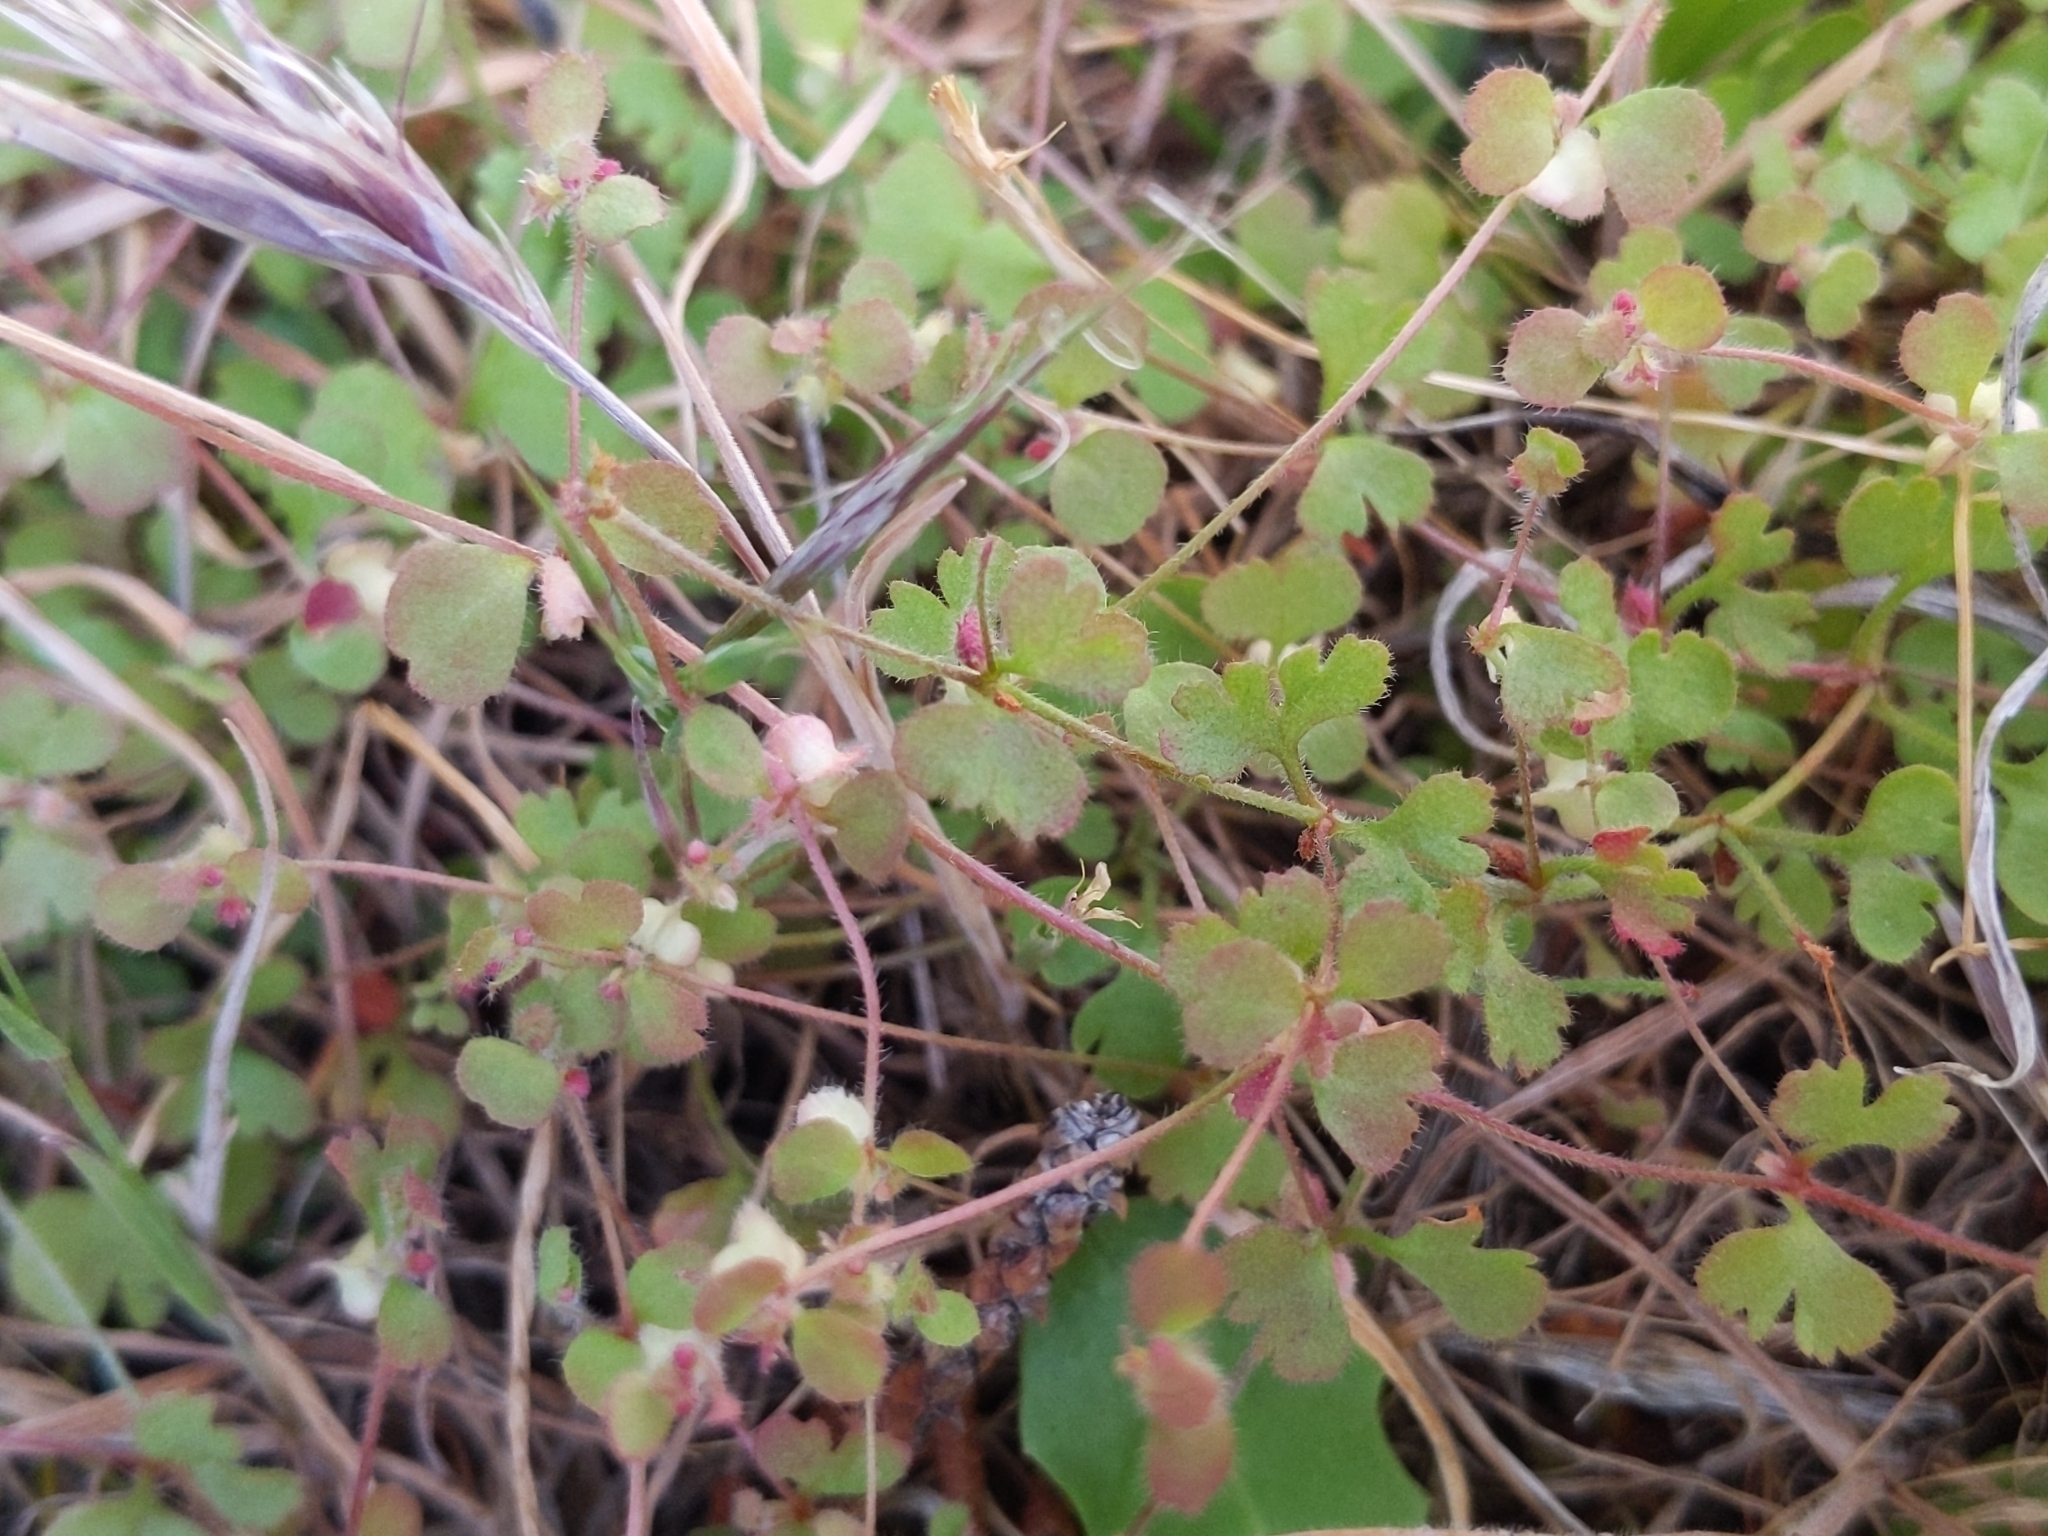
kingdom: Plantae
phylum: Tracheophyta
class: Magnoliopsida
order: Caryophyllales
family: Polygonaceae
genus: Pterostegia
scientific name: Pterostegia drymarioides
